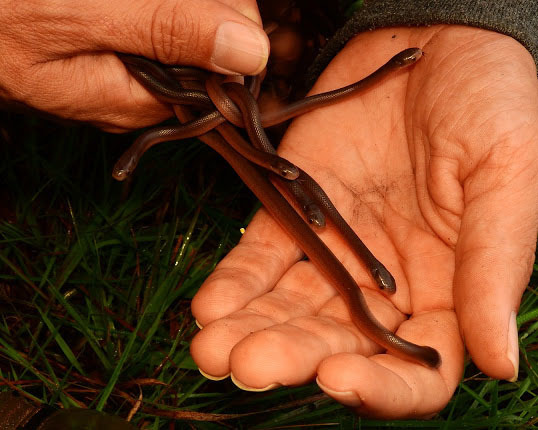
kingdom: Animalia
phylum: Chordata
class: Squamata
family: Colubridae
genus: Dasypeltis
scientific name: Dasypeltis inornata
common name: Southern brown egg eater
